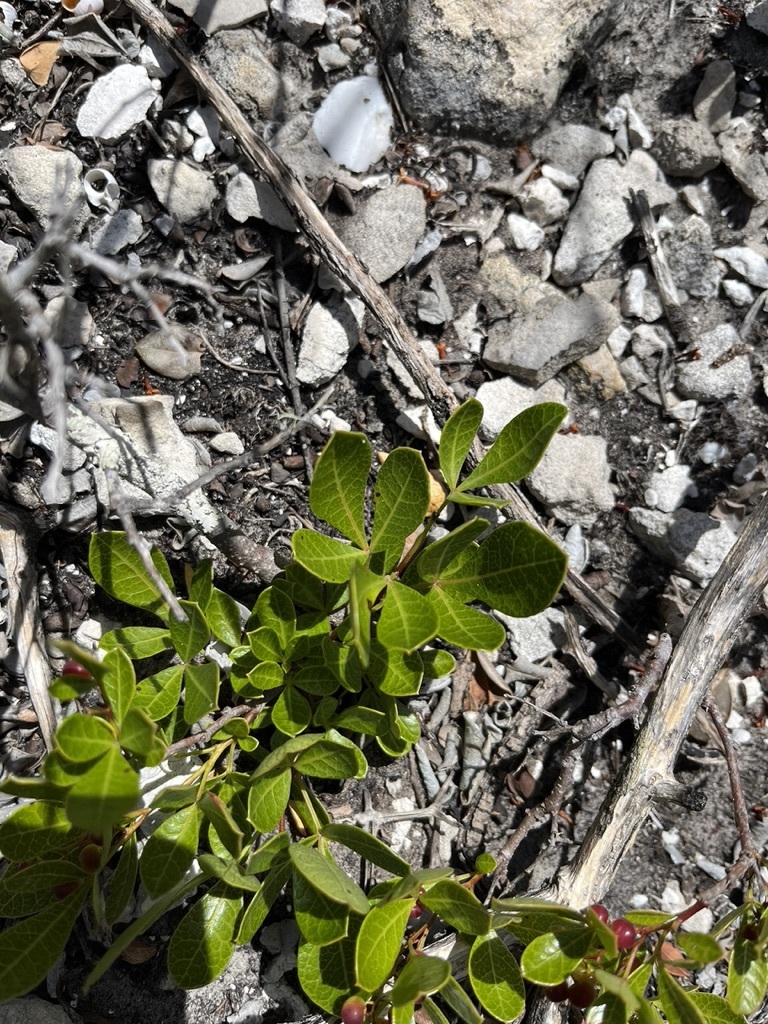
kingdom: Plantae
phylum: Tracheophyta
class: Magnoliopsida
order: Sapindales
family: Anacardiaceae
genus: Searsia
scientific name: Searsia laevigata
